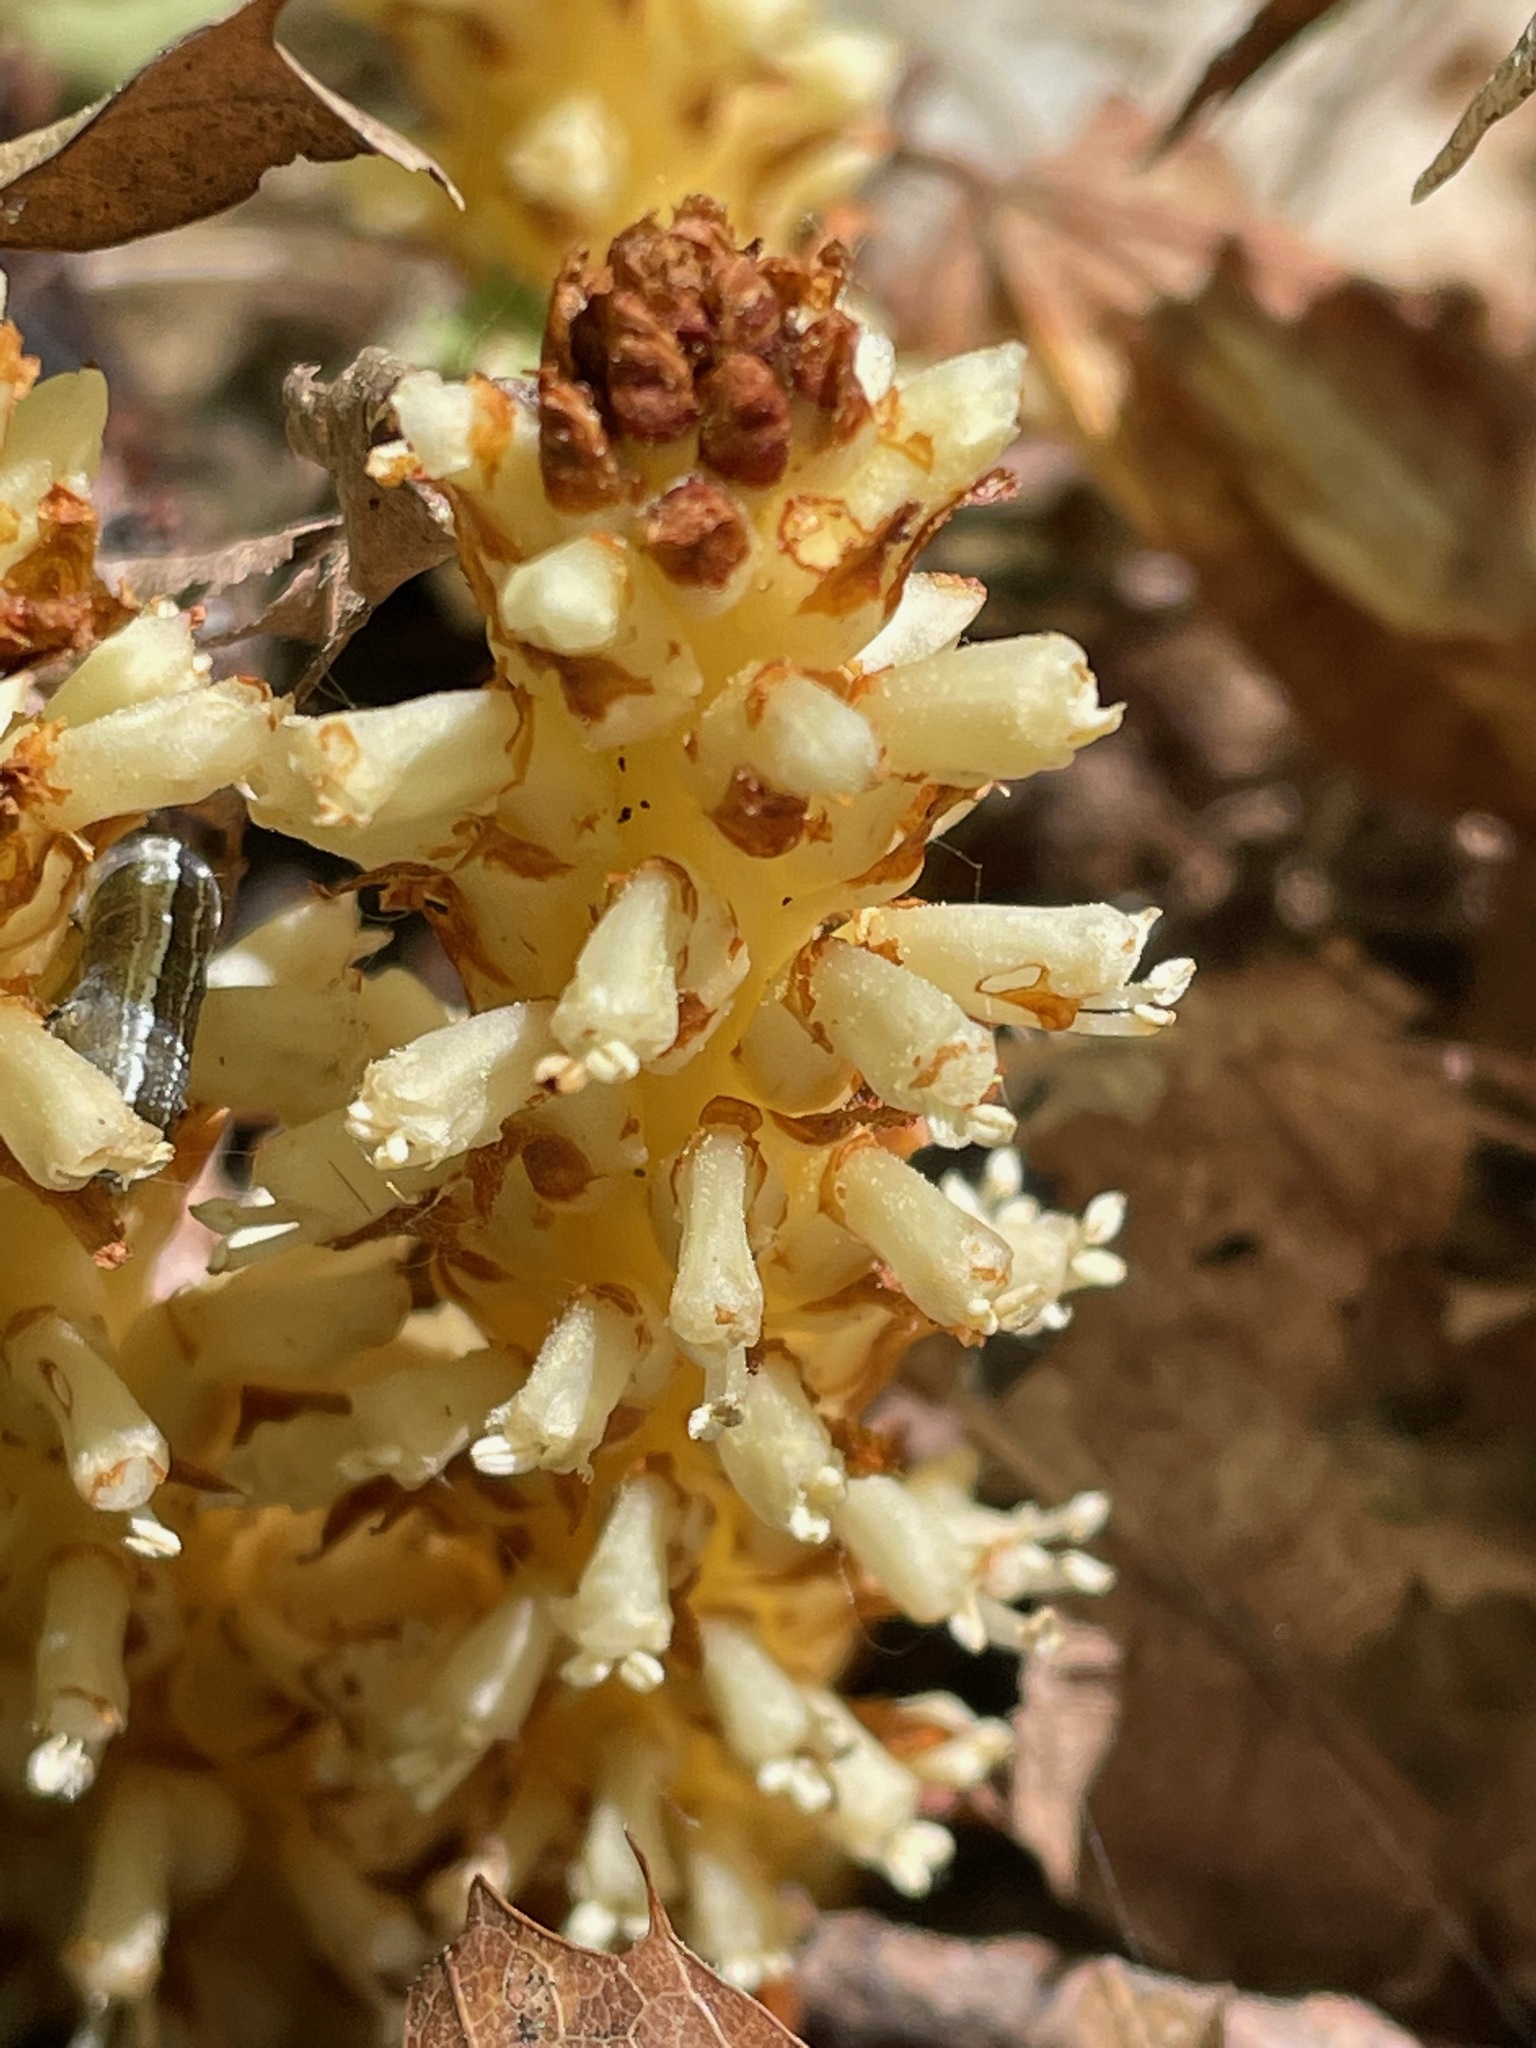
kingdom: Plantae
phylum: Tracheophyta
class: Magnoliopsida
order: Lamiales
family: Orobanchaceae
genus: Conopholis
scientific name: Conopholis americana
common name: American cancer-root
